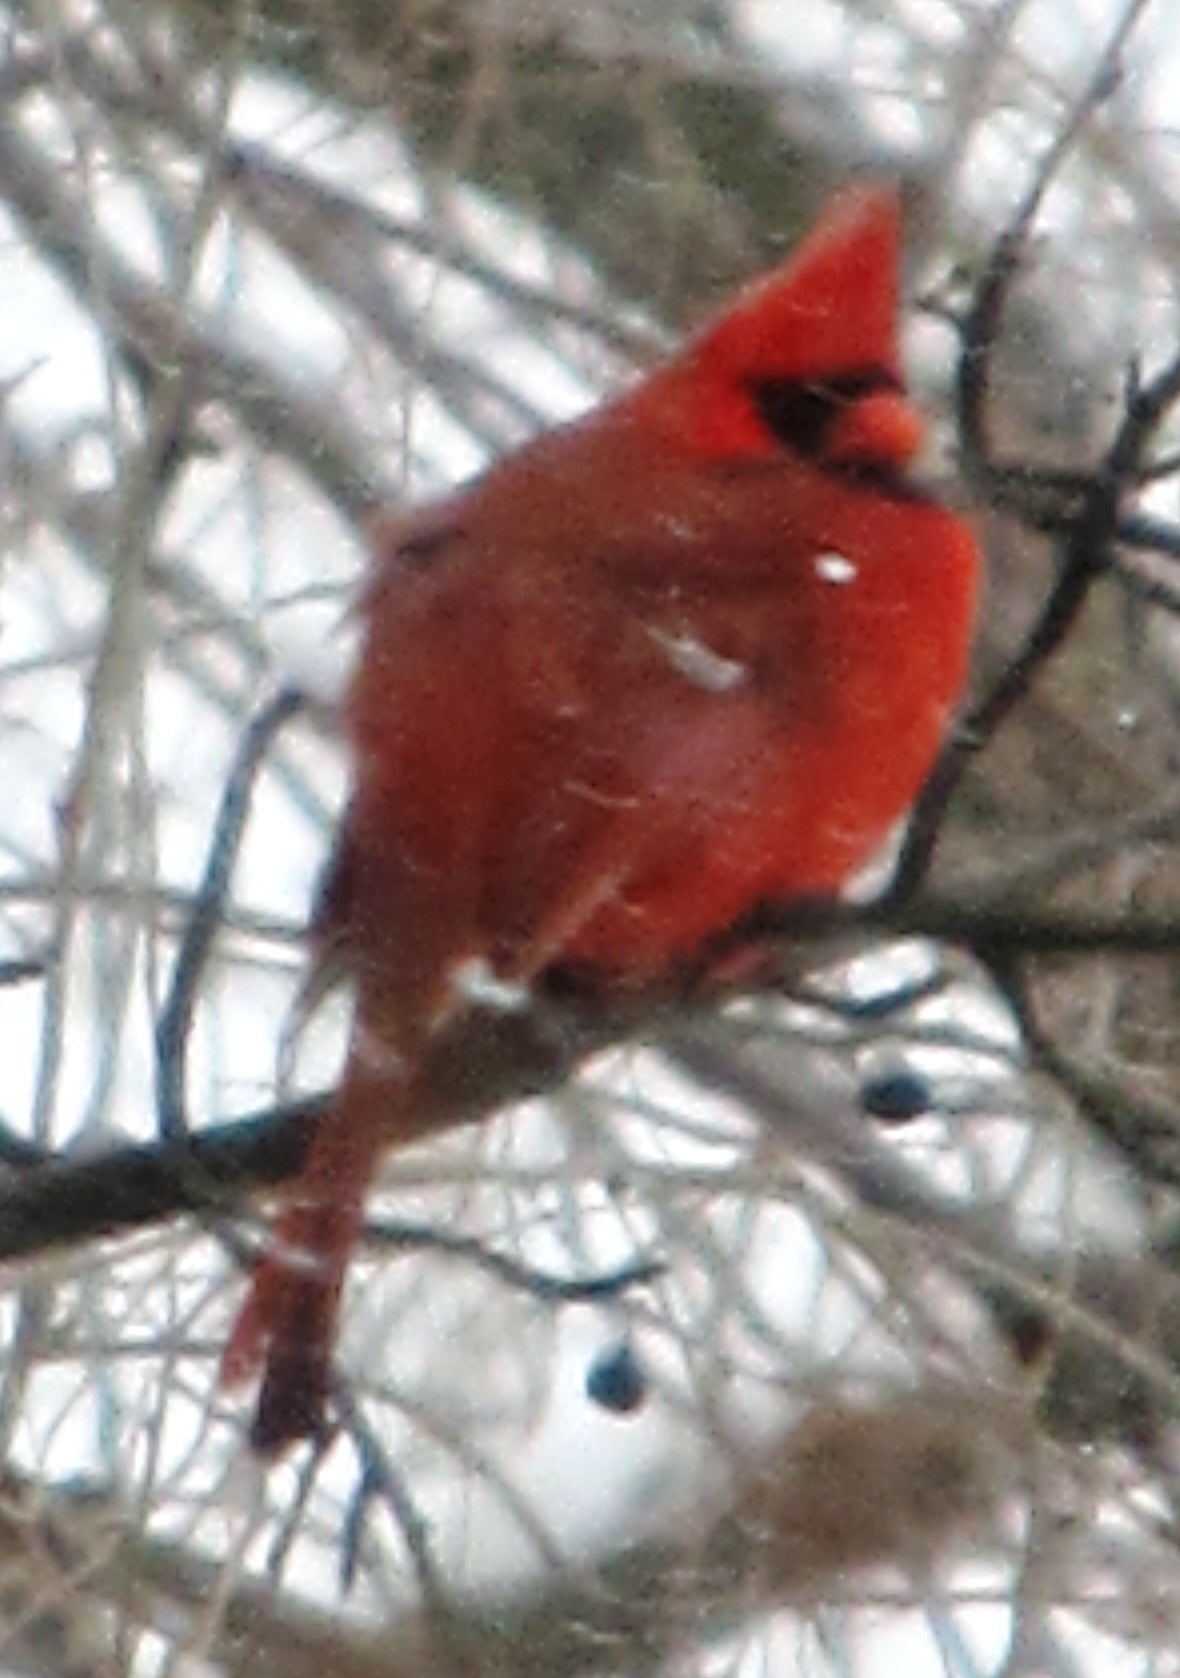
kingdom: Animalia
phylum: Chordata
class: Aves
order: Passeriformes
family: Cardinalidae
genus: Cardinalis
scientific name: Cardinalis cardinalis
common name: Northern cardinal
